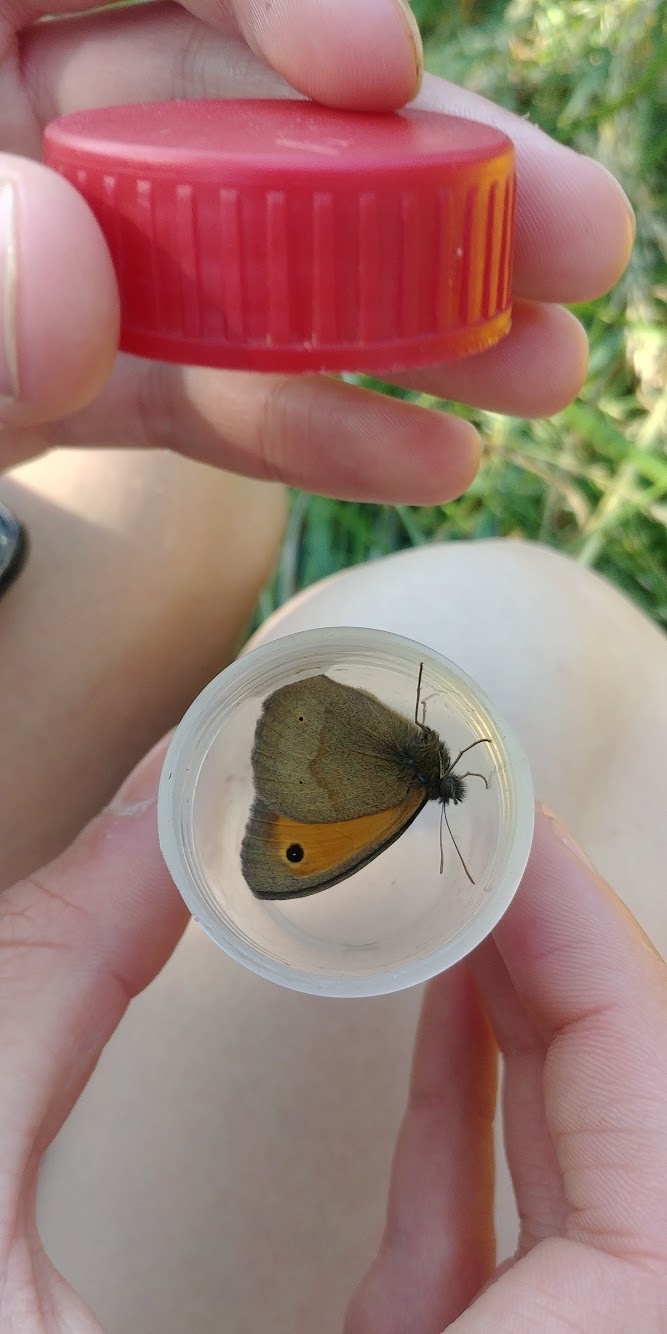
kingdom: Animalia
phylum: Arthropoda
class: Insecta
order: Lepidoptera
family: Nymphalidae
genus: Maniola
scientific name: Maniola jurtina
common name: Meadow brown
